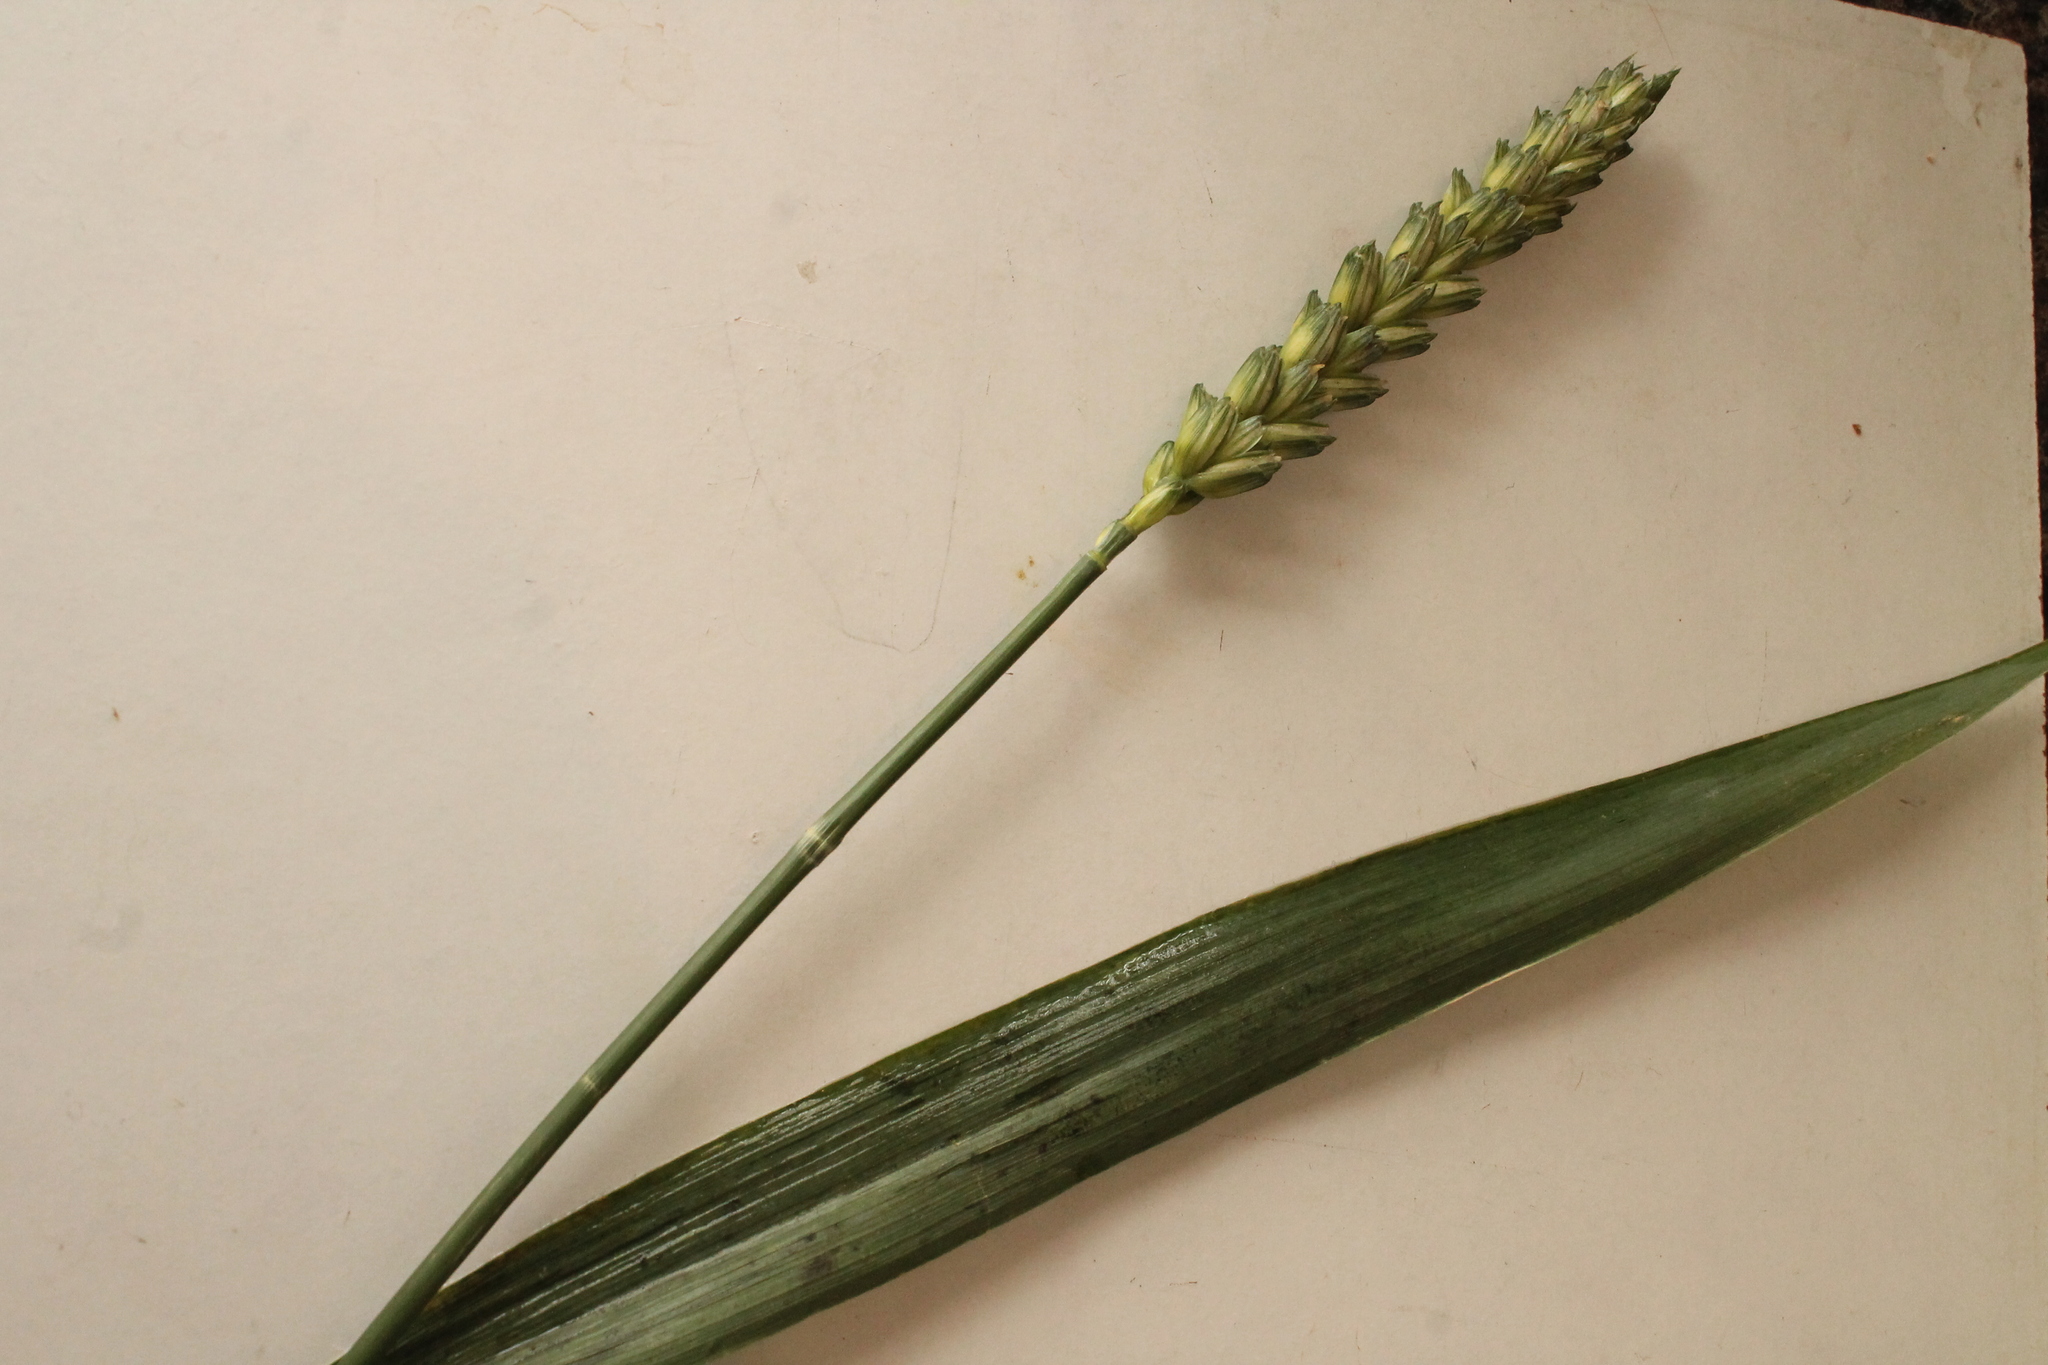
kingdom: Plantae
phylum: Tracheophyta
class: Liliopsida
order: Poales
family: Poaceae
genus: Triticum
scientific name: Triticum aestivum
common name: Common wheat
